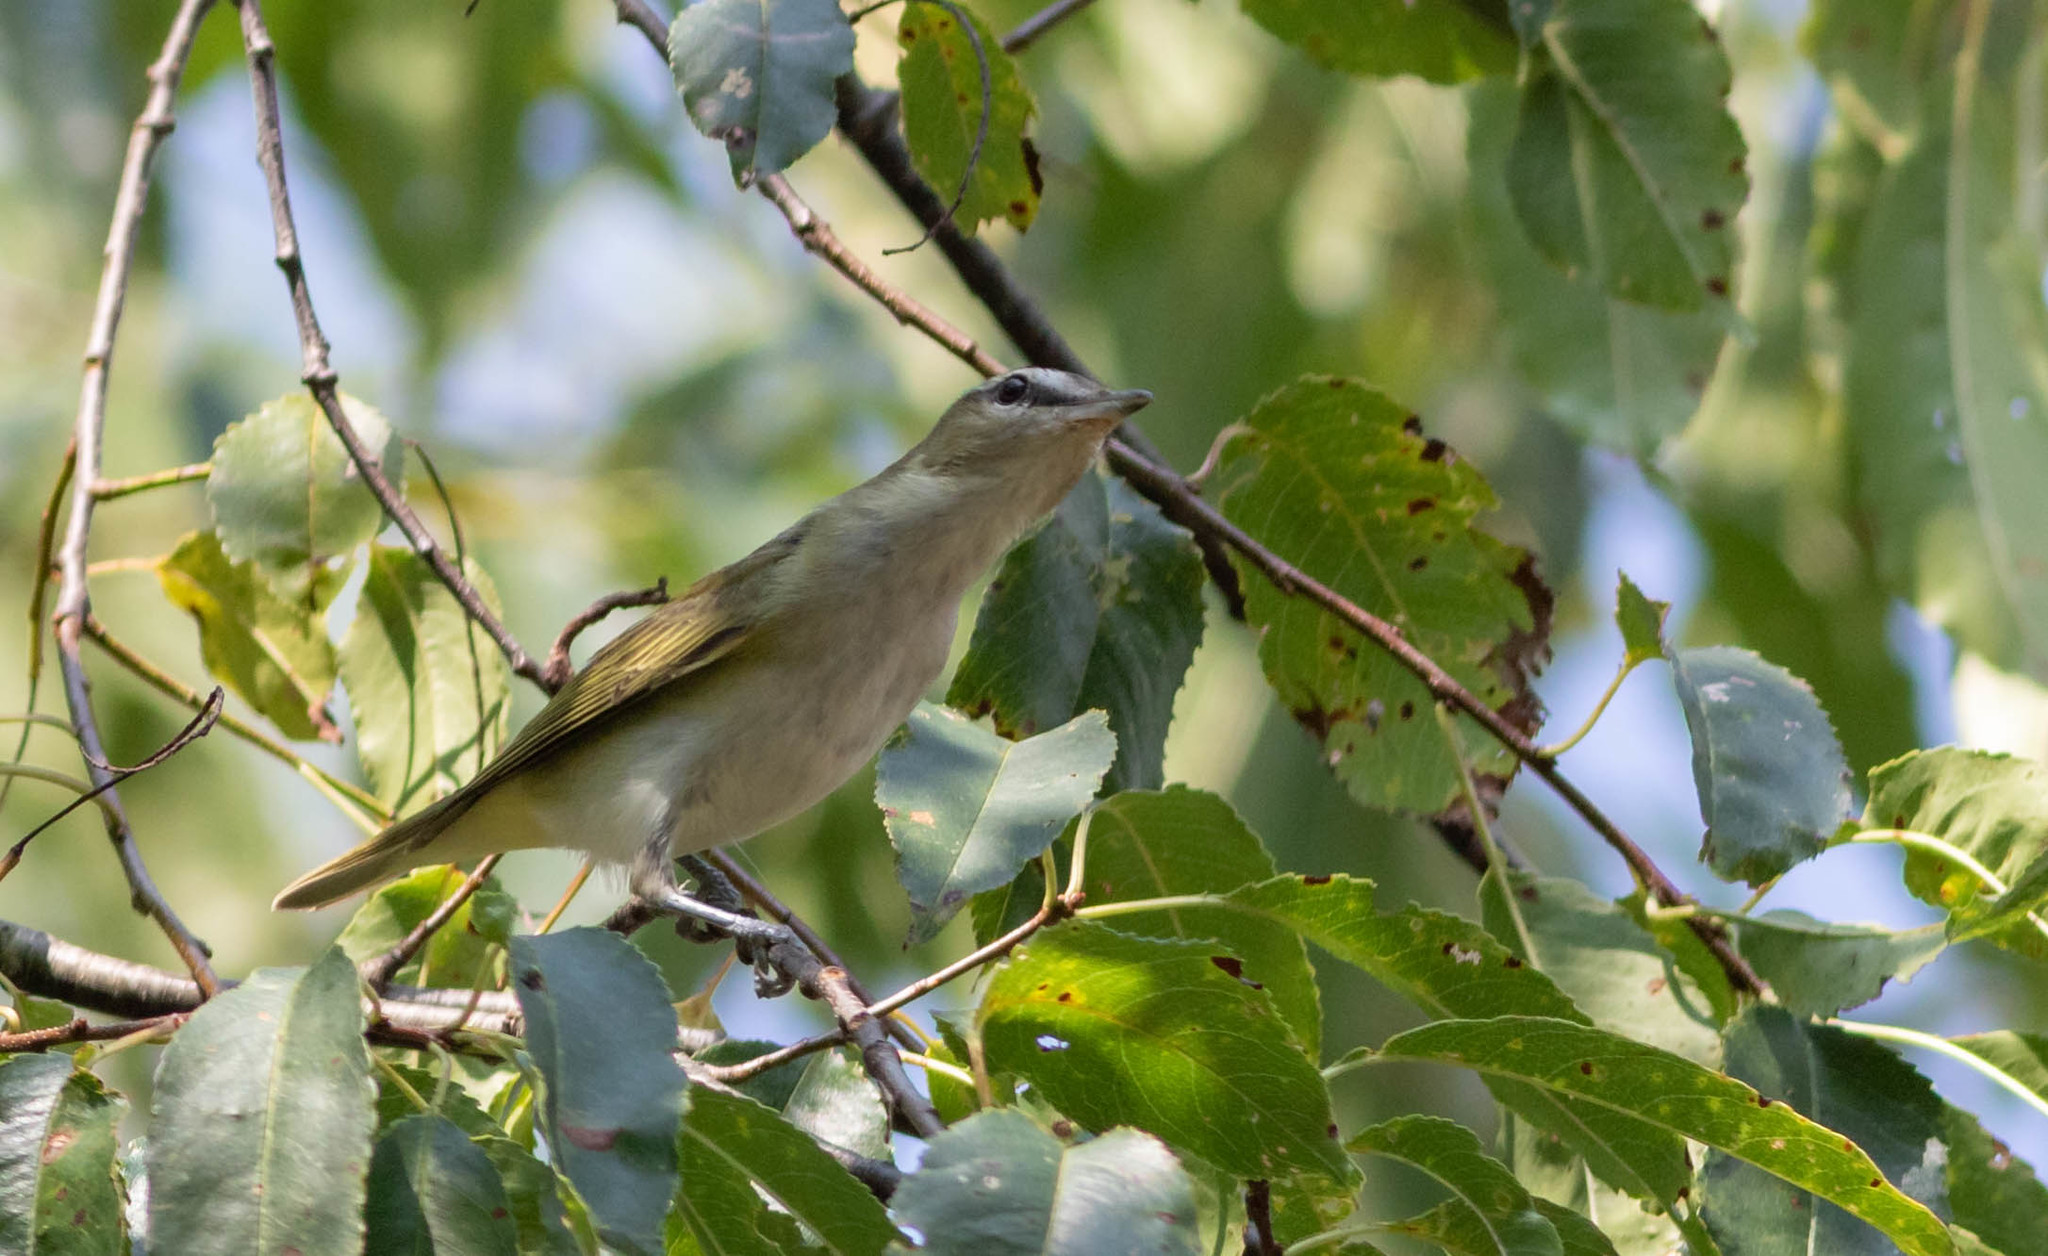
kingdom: Animalia
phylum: Chordata
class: Aves
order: Passeriformes
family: Vireonidae
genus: Vireo
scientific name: Vireo olivaceus
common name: Red-eyed vireo
